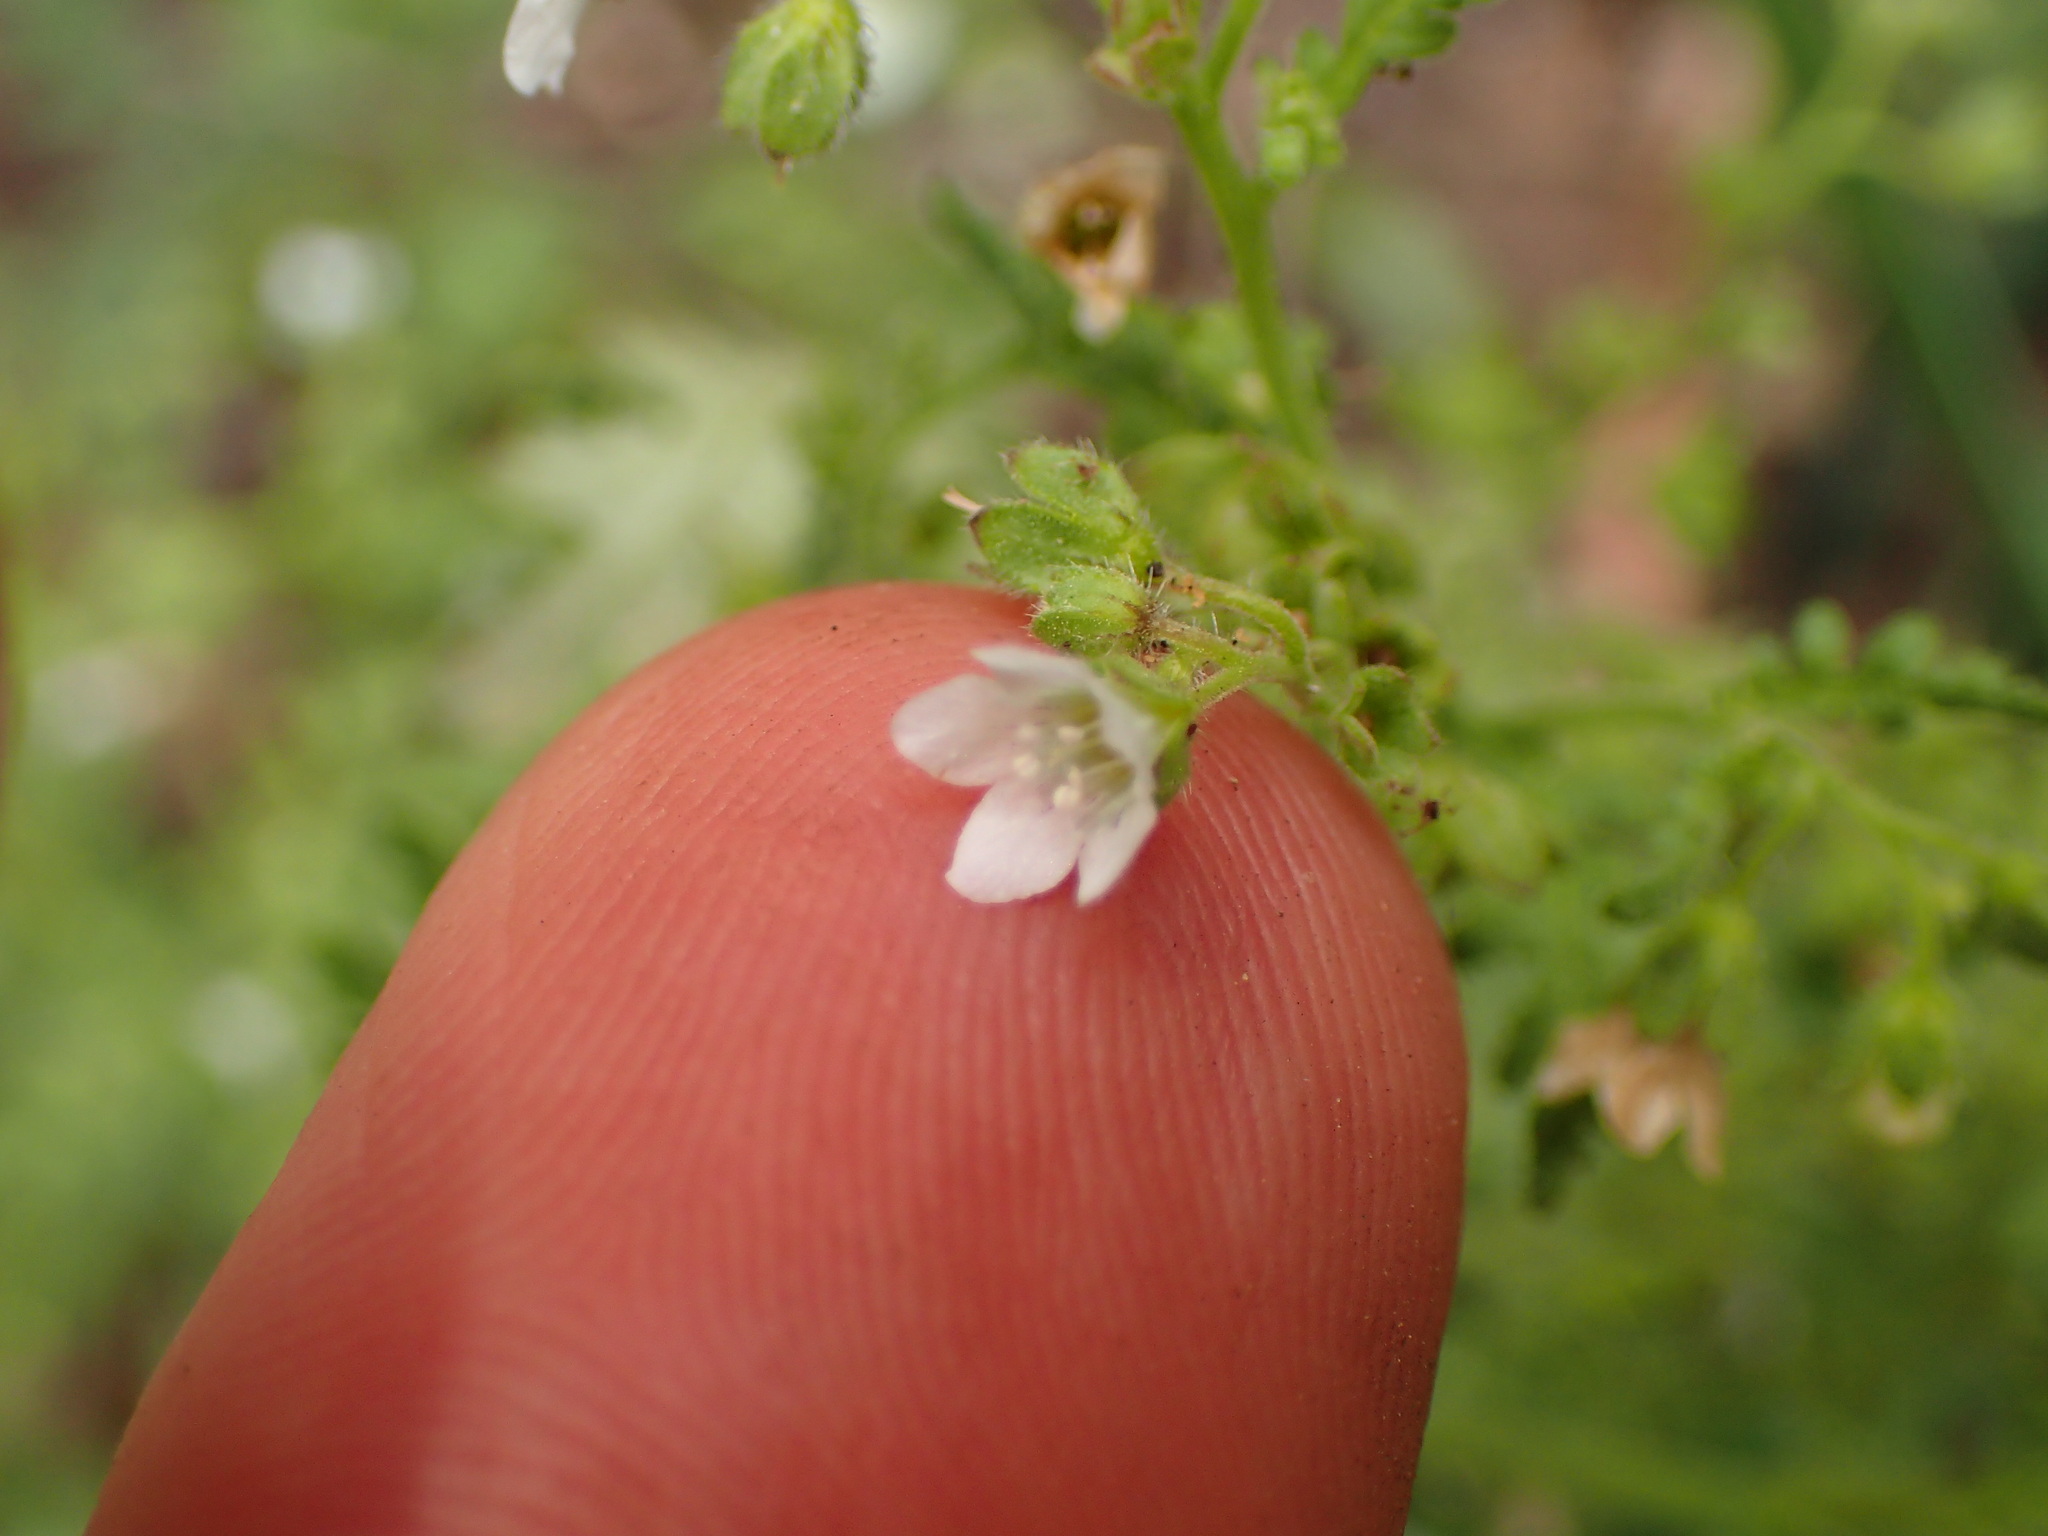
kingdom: Plantae
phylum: Tracheophyta
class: Magnoliopsida
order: Boraginales
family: Hydrophyllaceae
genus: Eucrypta
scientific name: Eucrypta chrysanthemifolia
